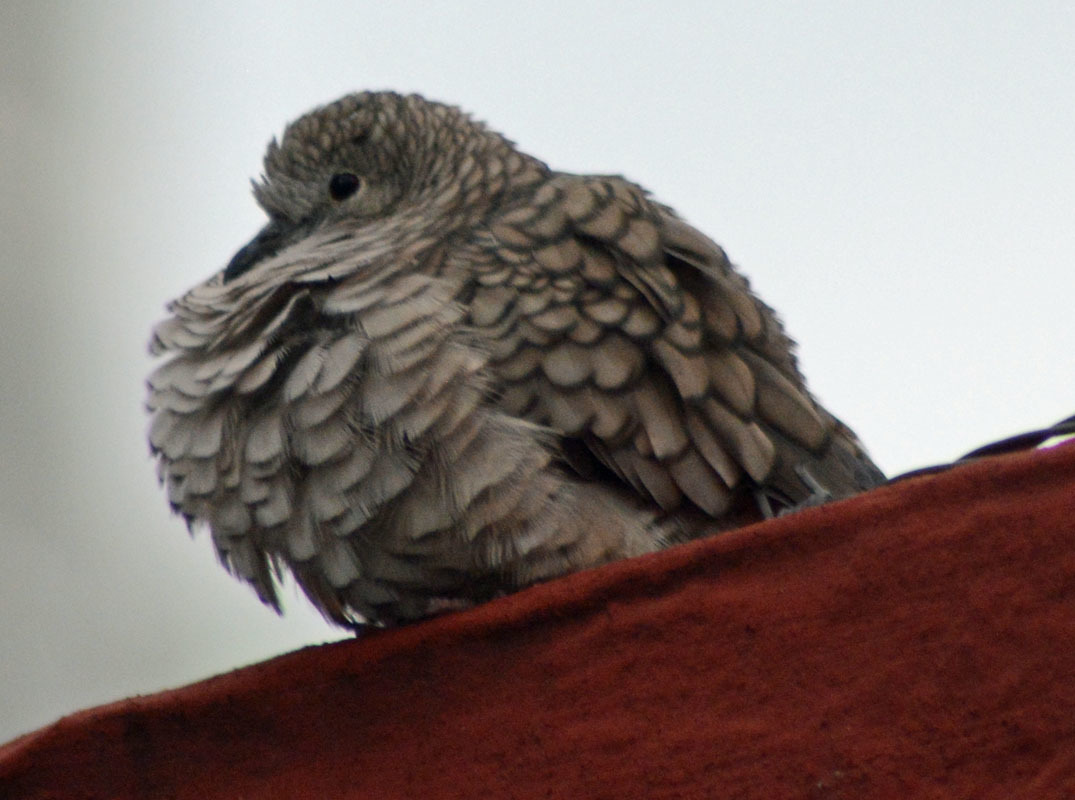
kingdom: Animalia
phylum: Chordata
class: Aves
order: Columbiformes
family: Columbidae
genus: Columbina
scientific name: Columbina inca
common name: Inca dove
